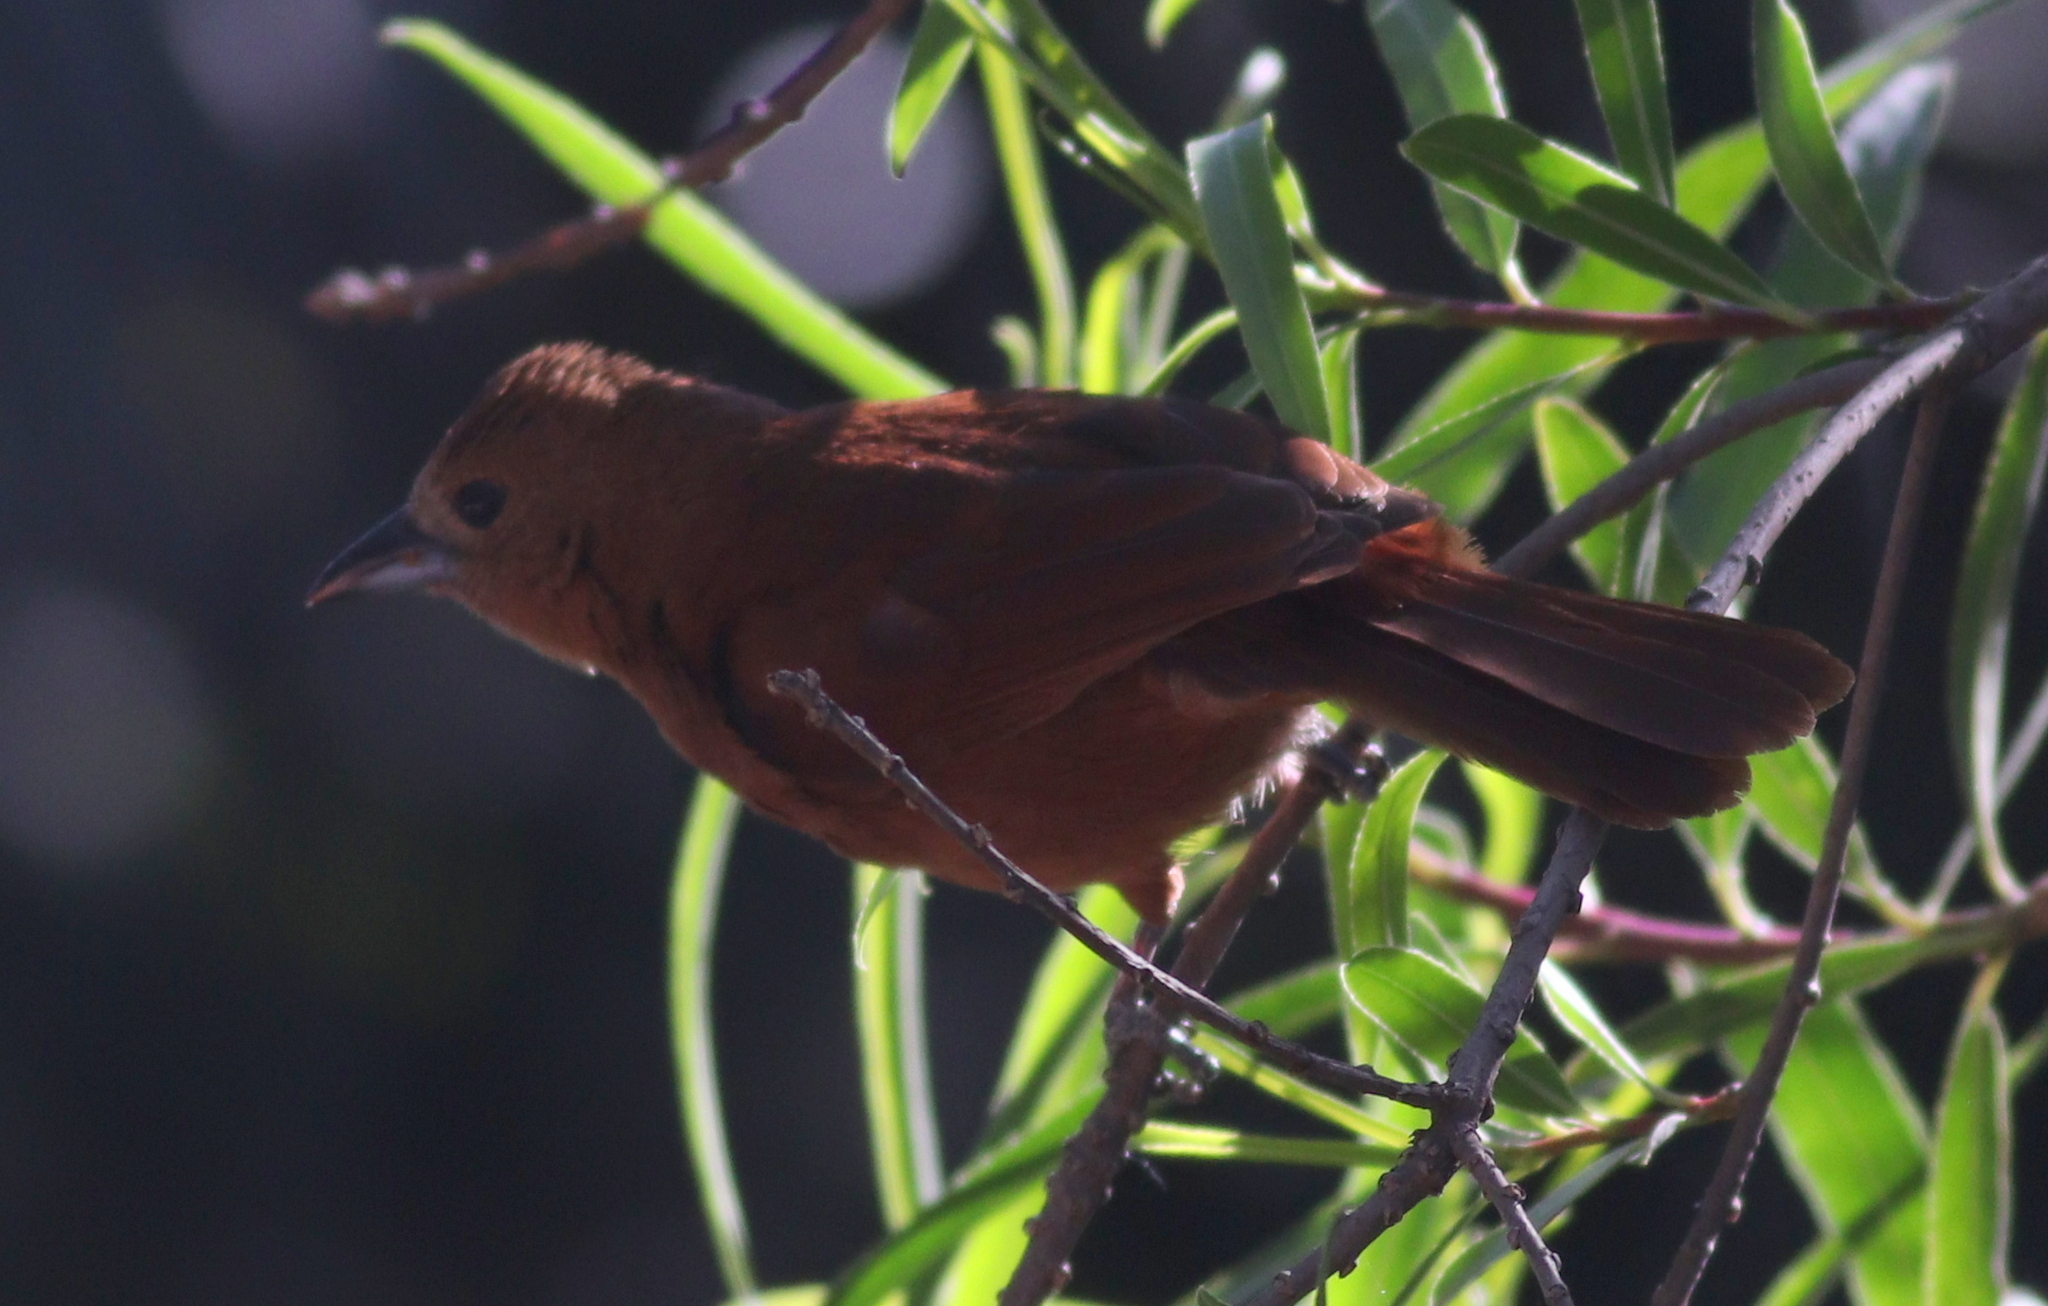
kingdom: Animalia
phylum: Chordata
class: Aves
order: Passeriformes
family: Thraupidae
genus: Tachyphonus
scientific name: Tachyphonus rufus
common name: White-lined tanager
